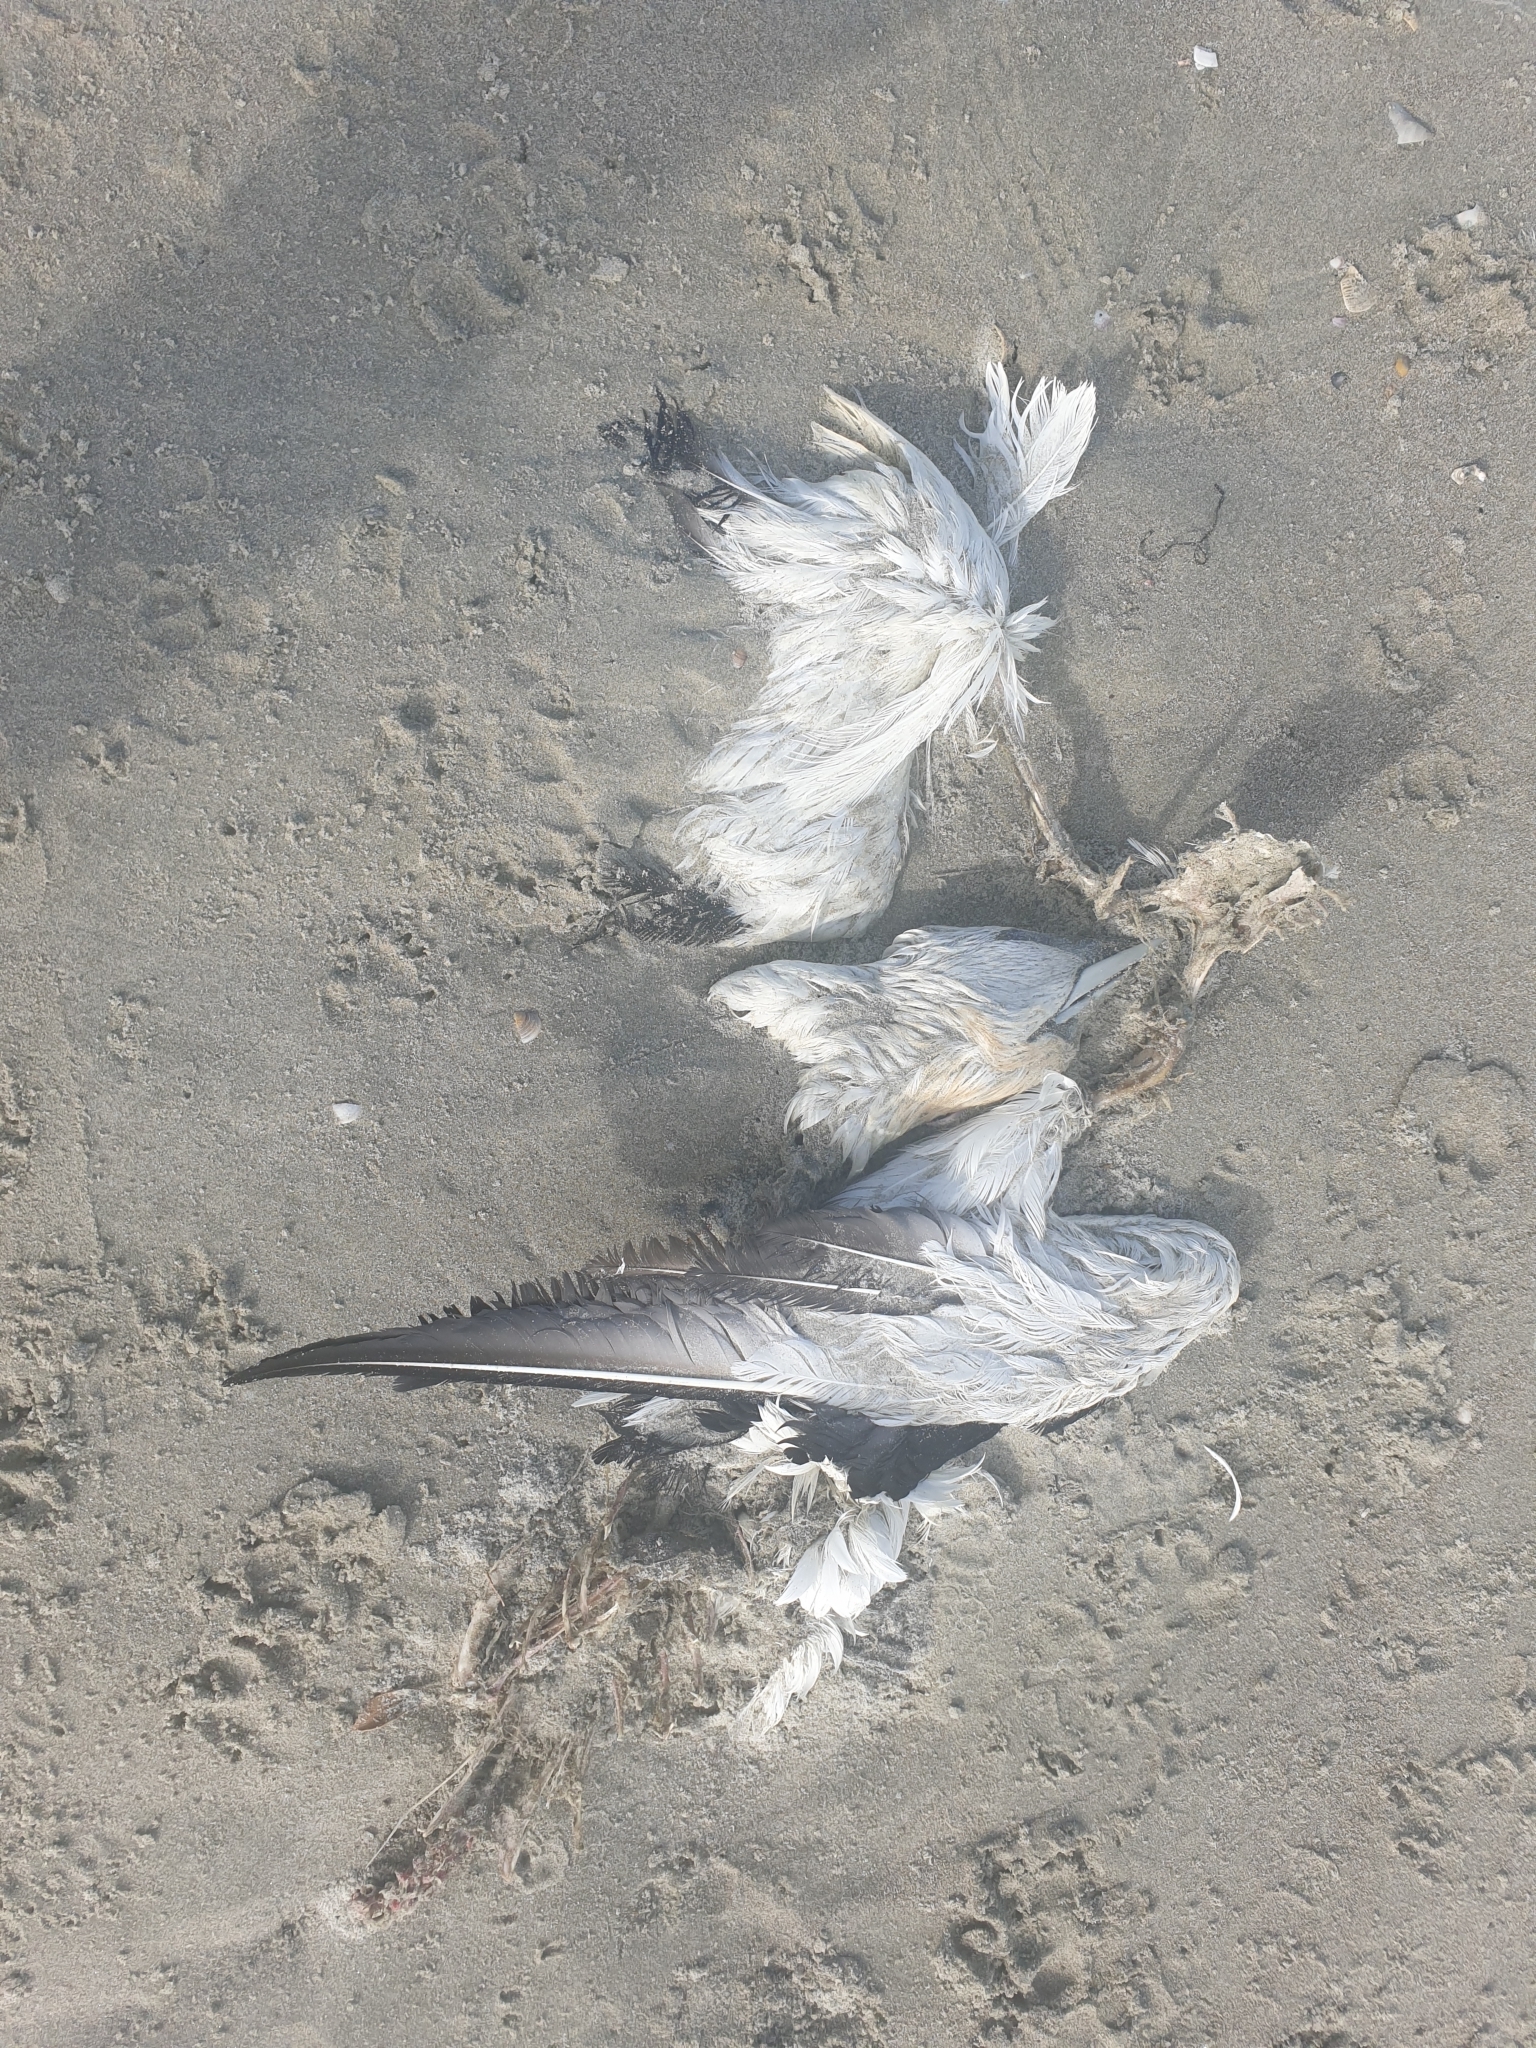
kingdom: Animalia
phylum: Chordata
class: Aves
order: Suliformes
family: Sulidae
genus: Morus
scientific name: Morus serrator
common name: Australasian gannet
